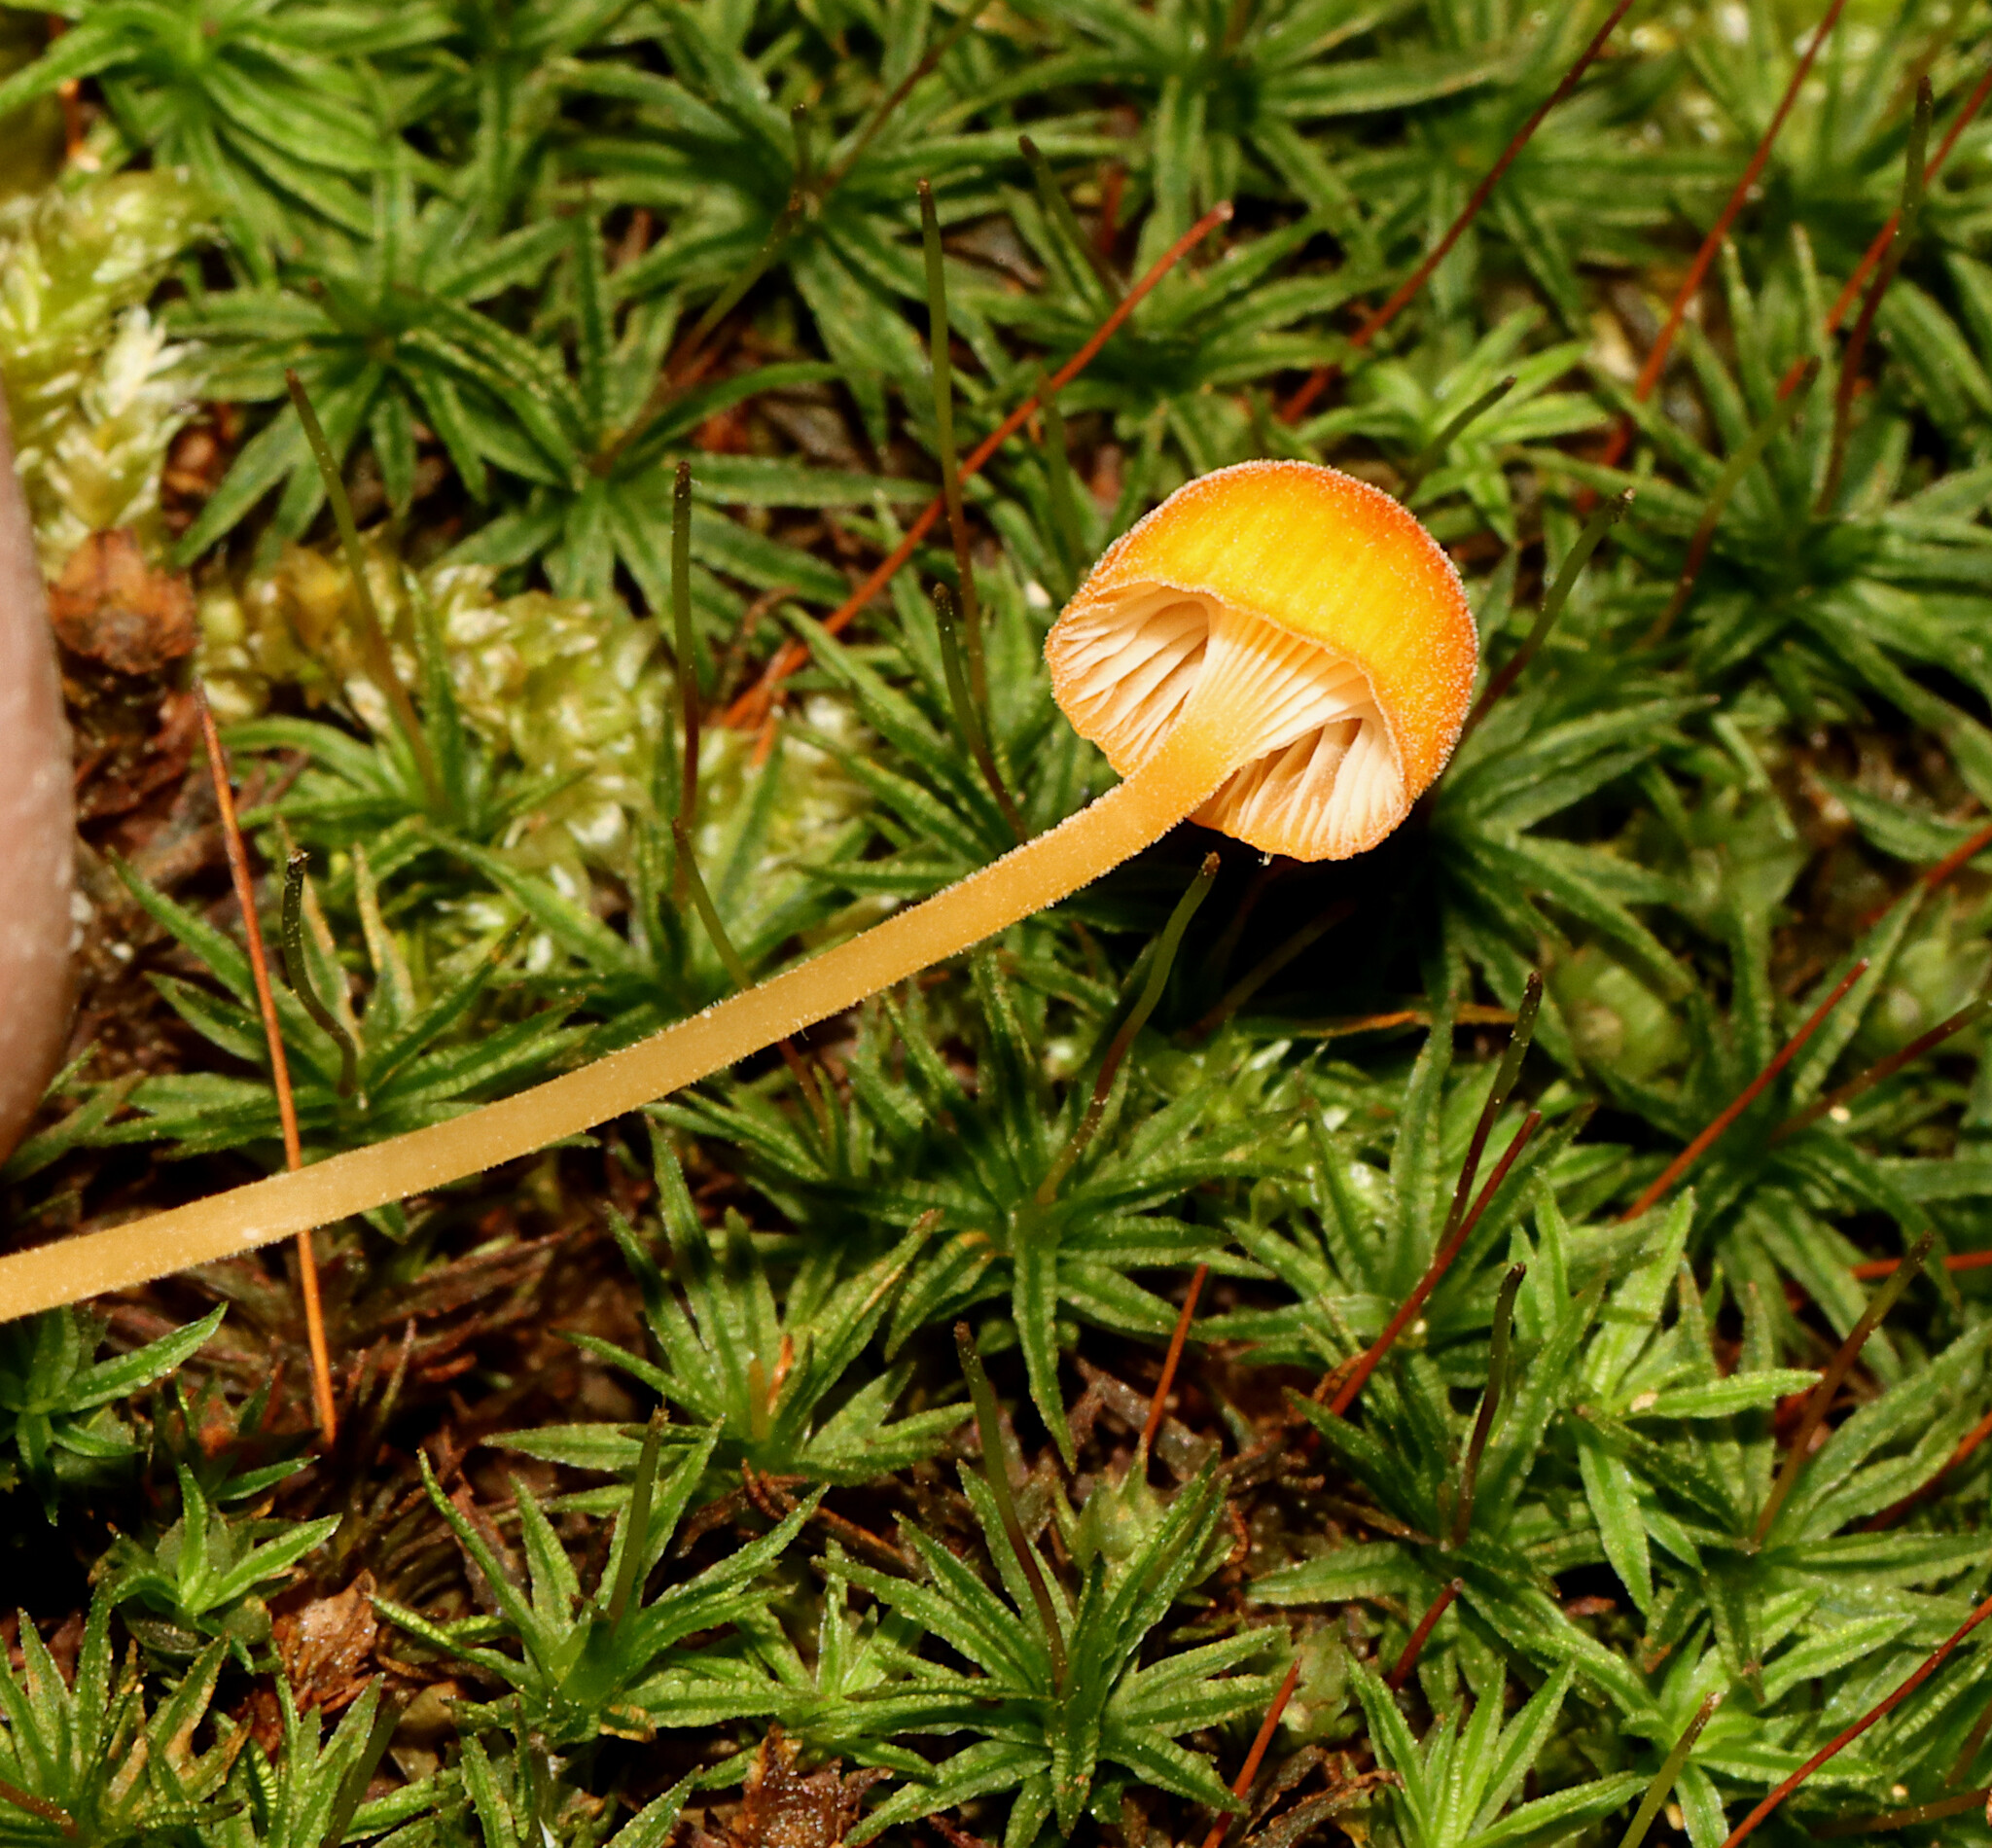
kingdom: Fungi
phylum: Basidiomycota
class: Agaricomycetes
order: Hymenochaetales
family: Rickenellaceae
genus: Rickenella
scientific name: Rickenella fibula
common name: Orange mosscap
